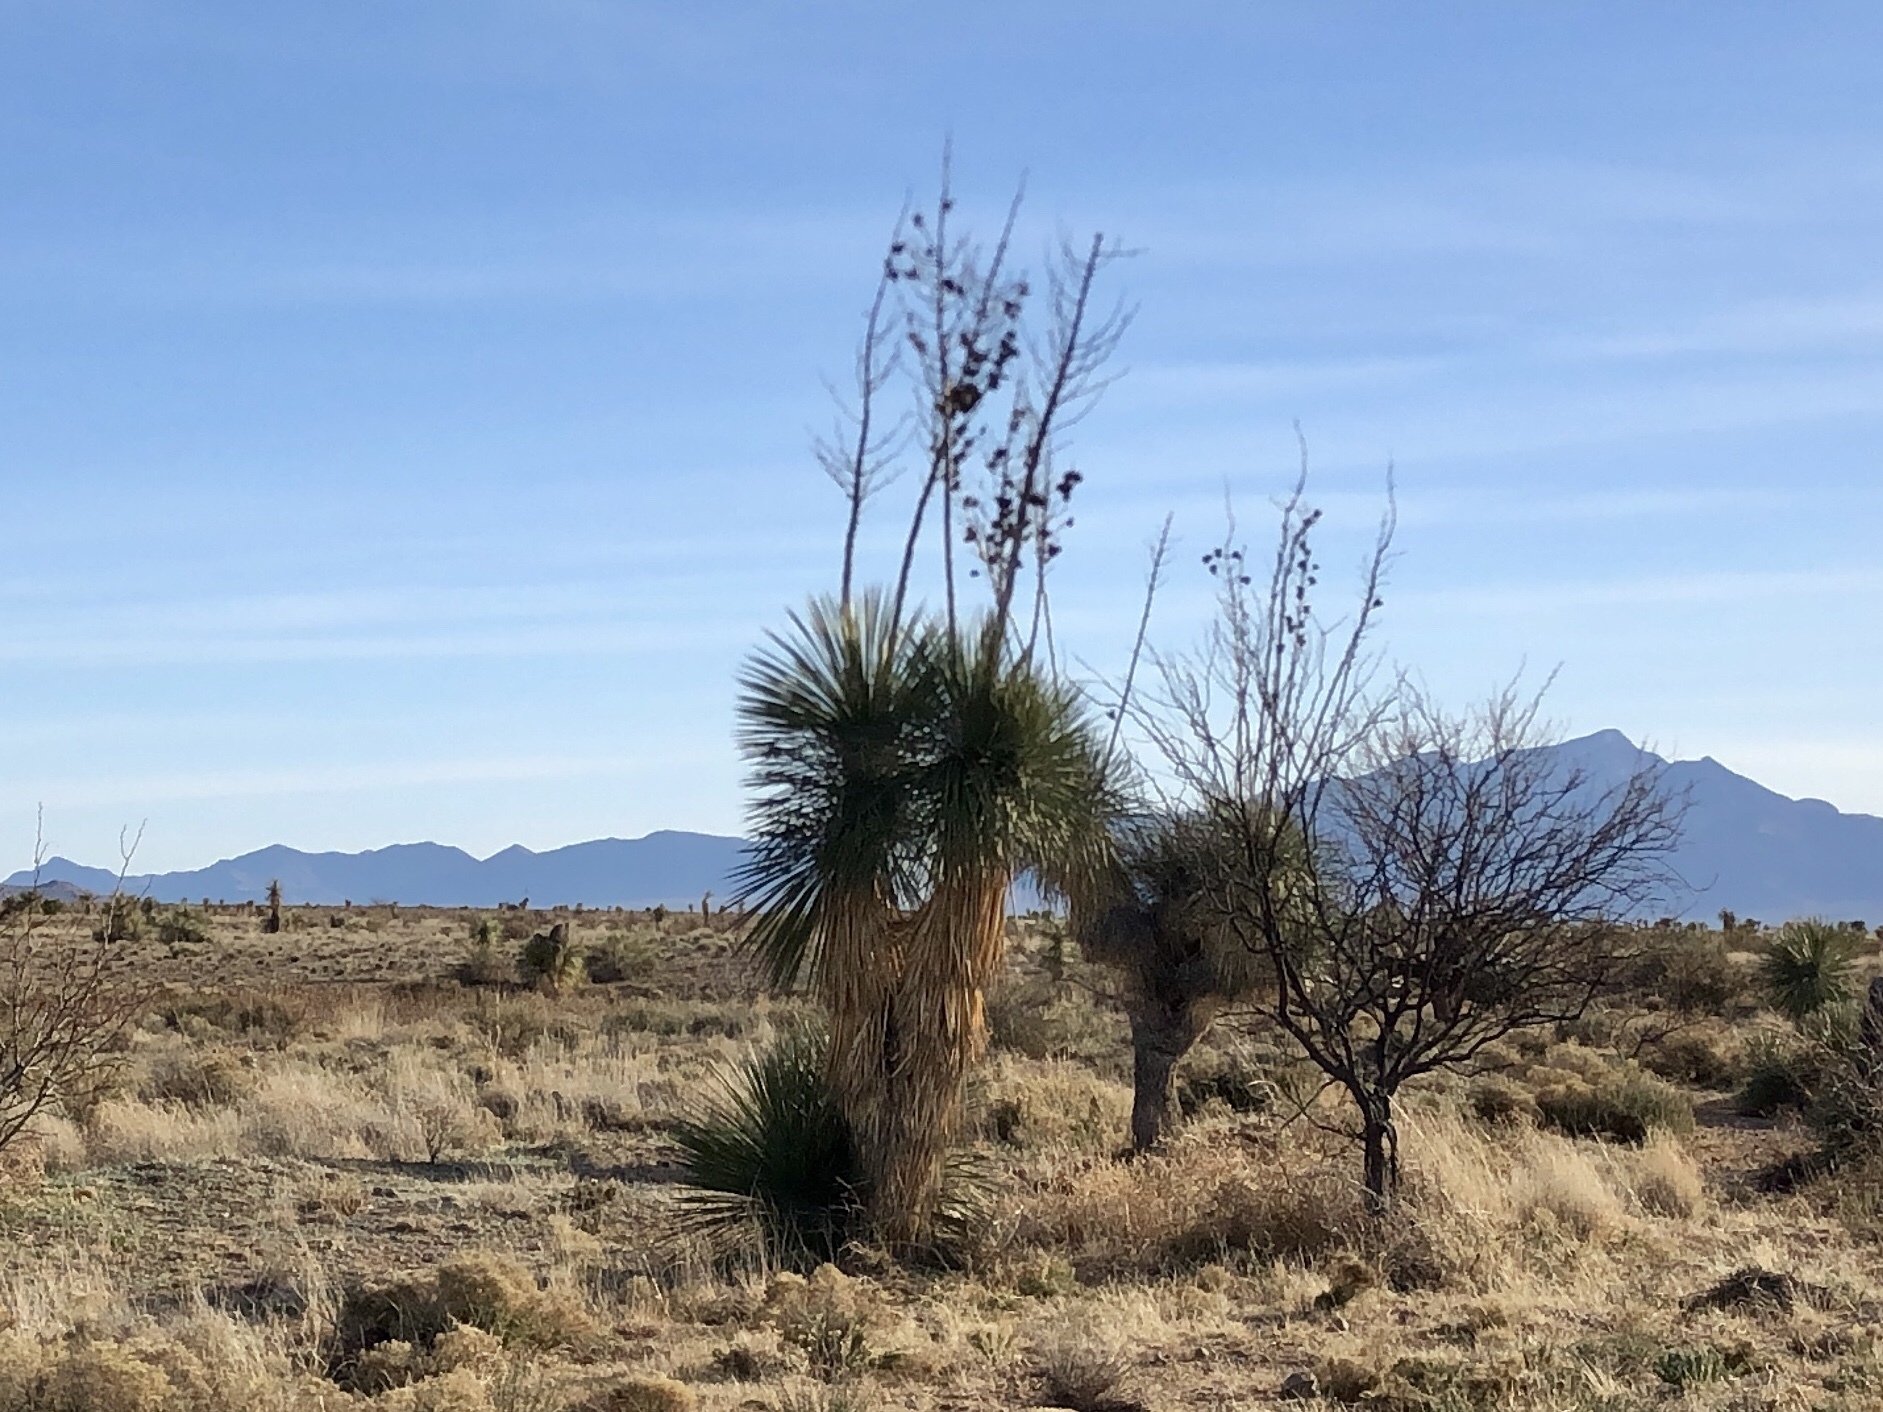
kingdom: Plantae
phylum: Tracheophyta
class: Liliopsida
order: Asparagales
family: Asparagaceae
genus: Yucca
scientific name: Yucca elata
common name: Palmella
